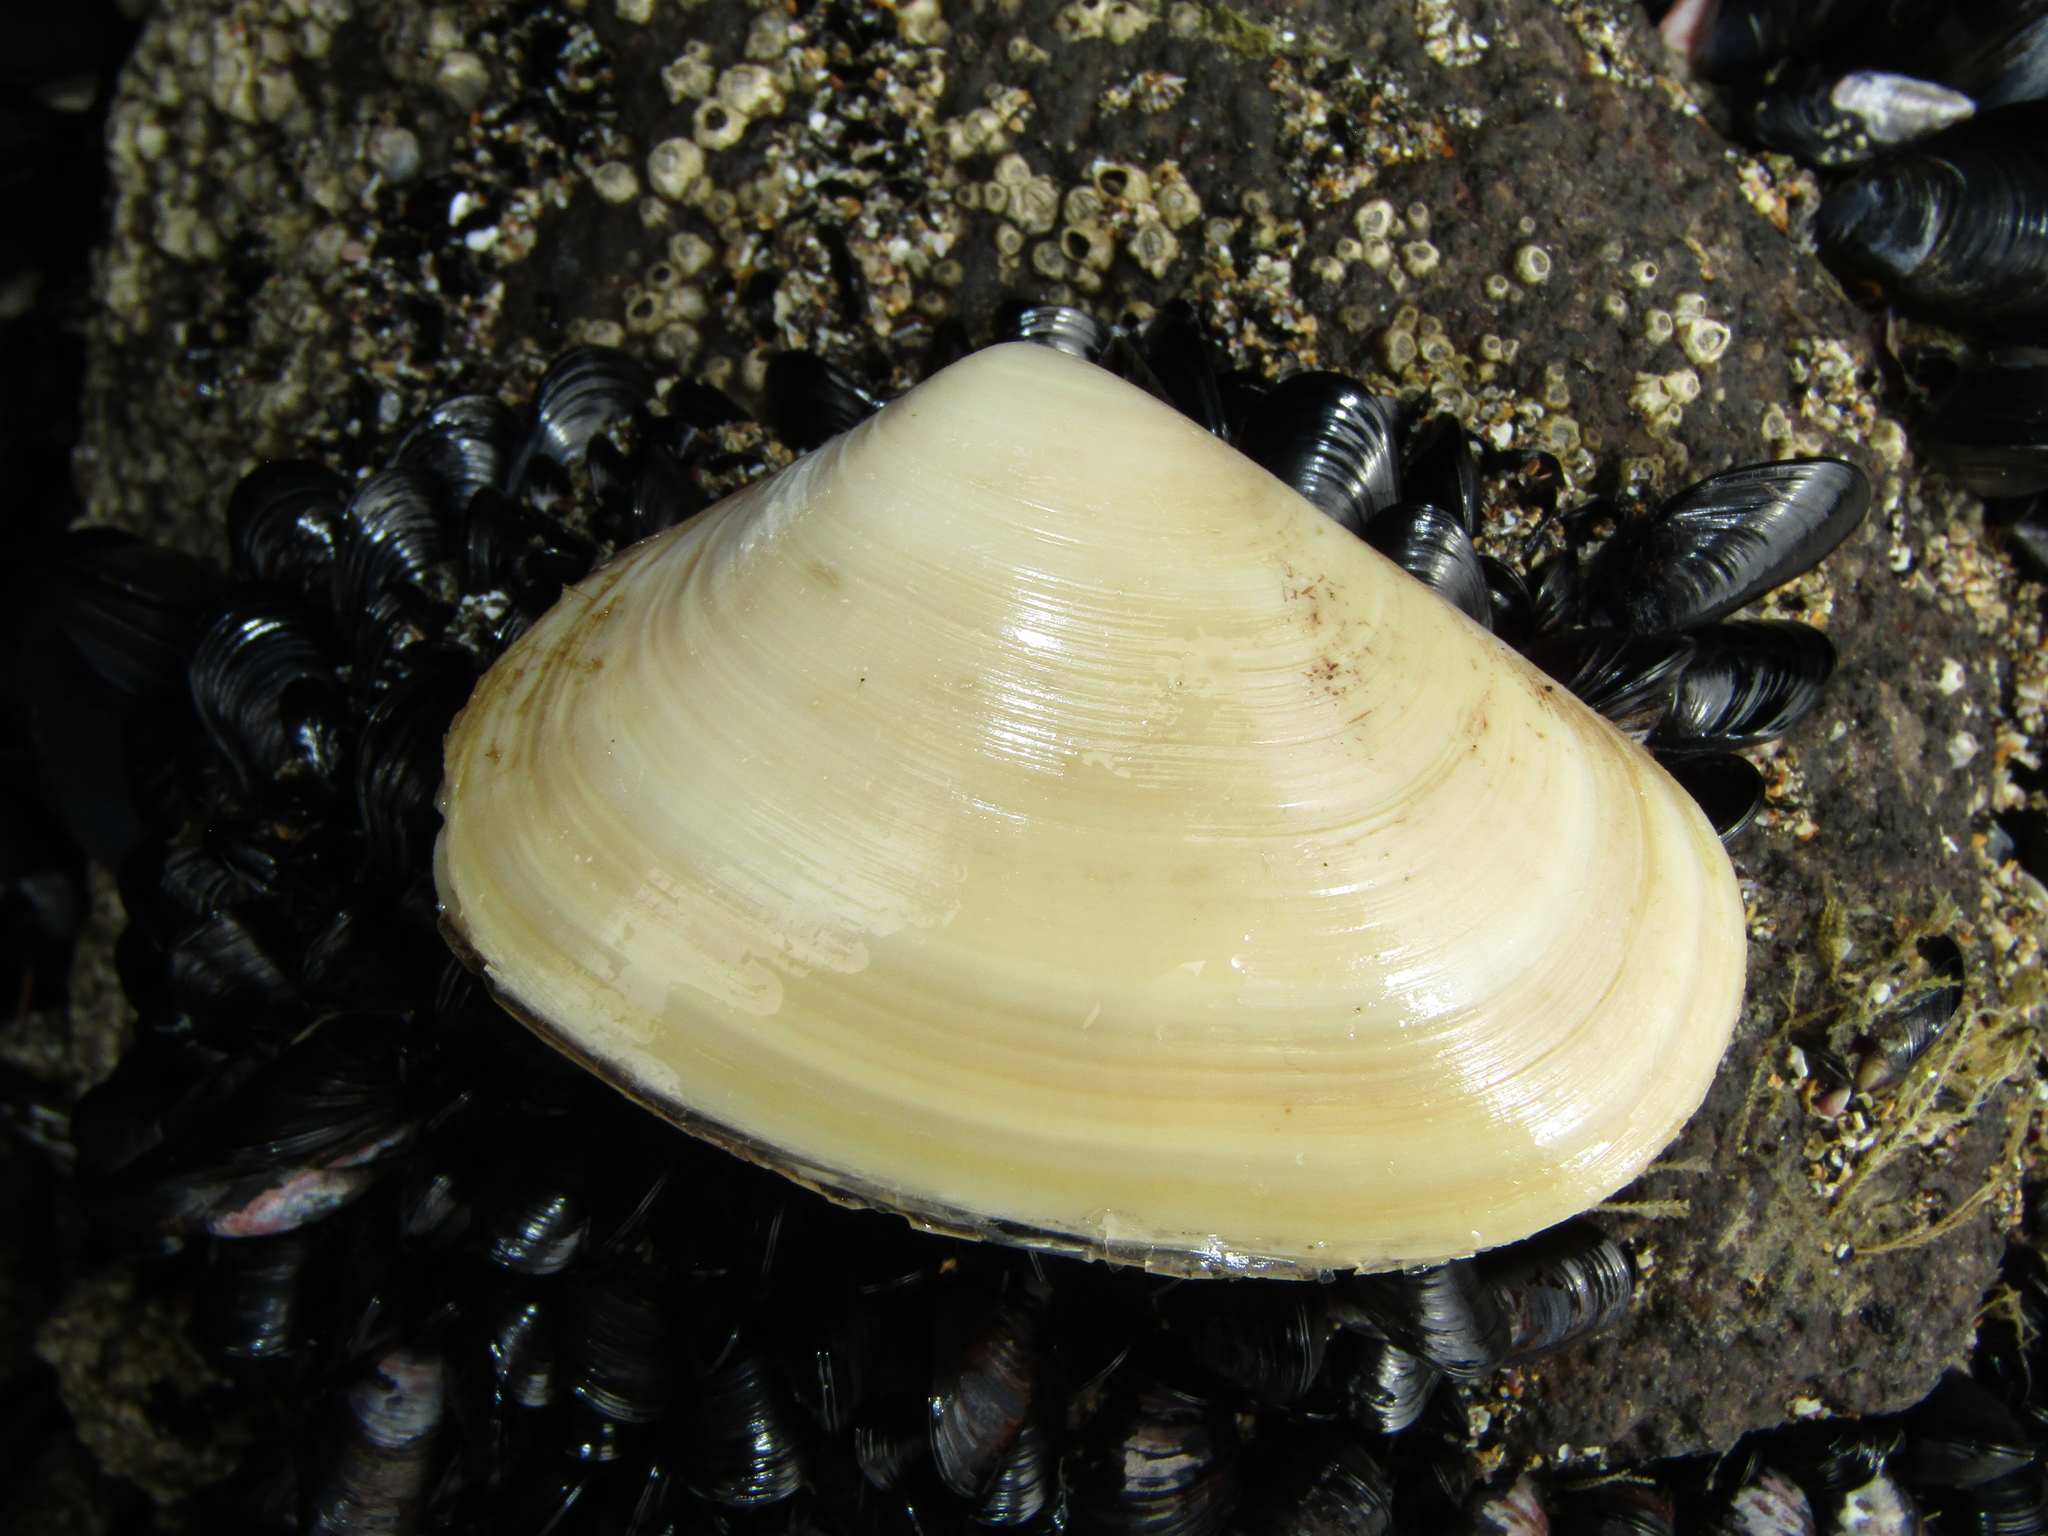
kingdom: Animalia
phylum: Mollusca
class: Bivalvia
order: Venerida
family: Mesodesmatidae
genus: Paphies
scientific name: Paphies donacina
